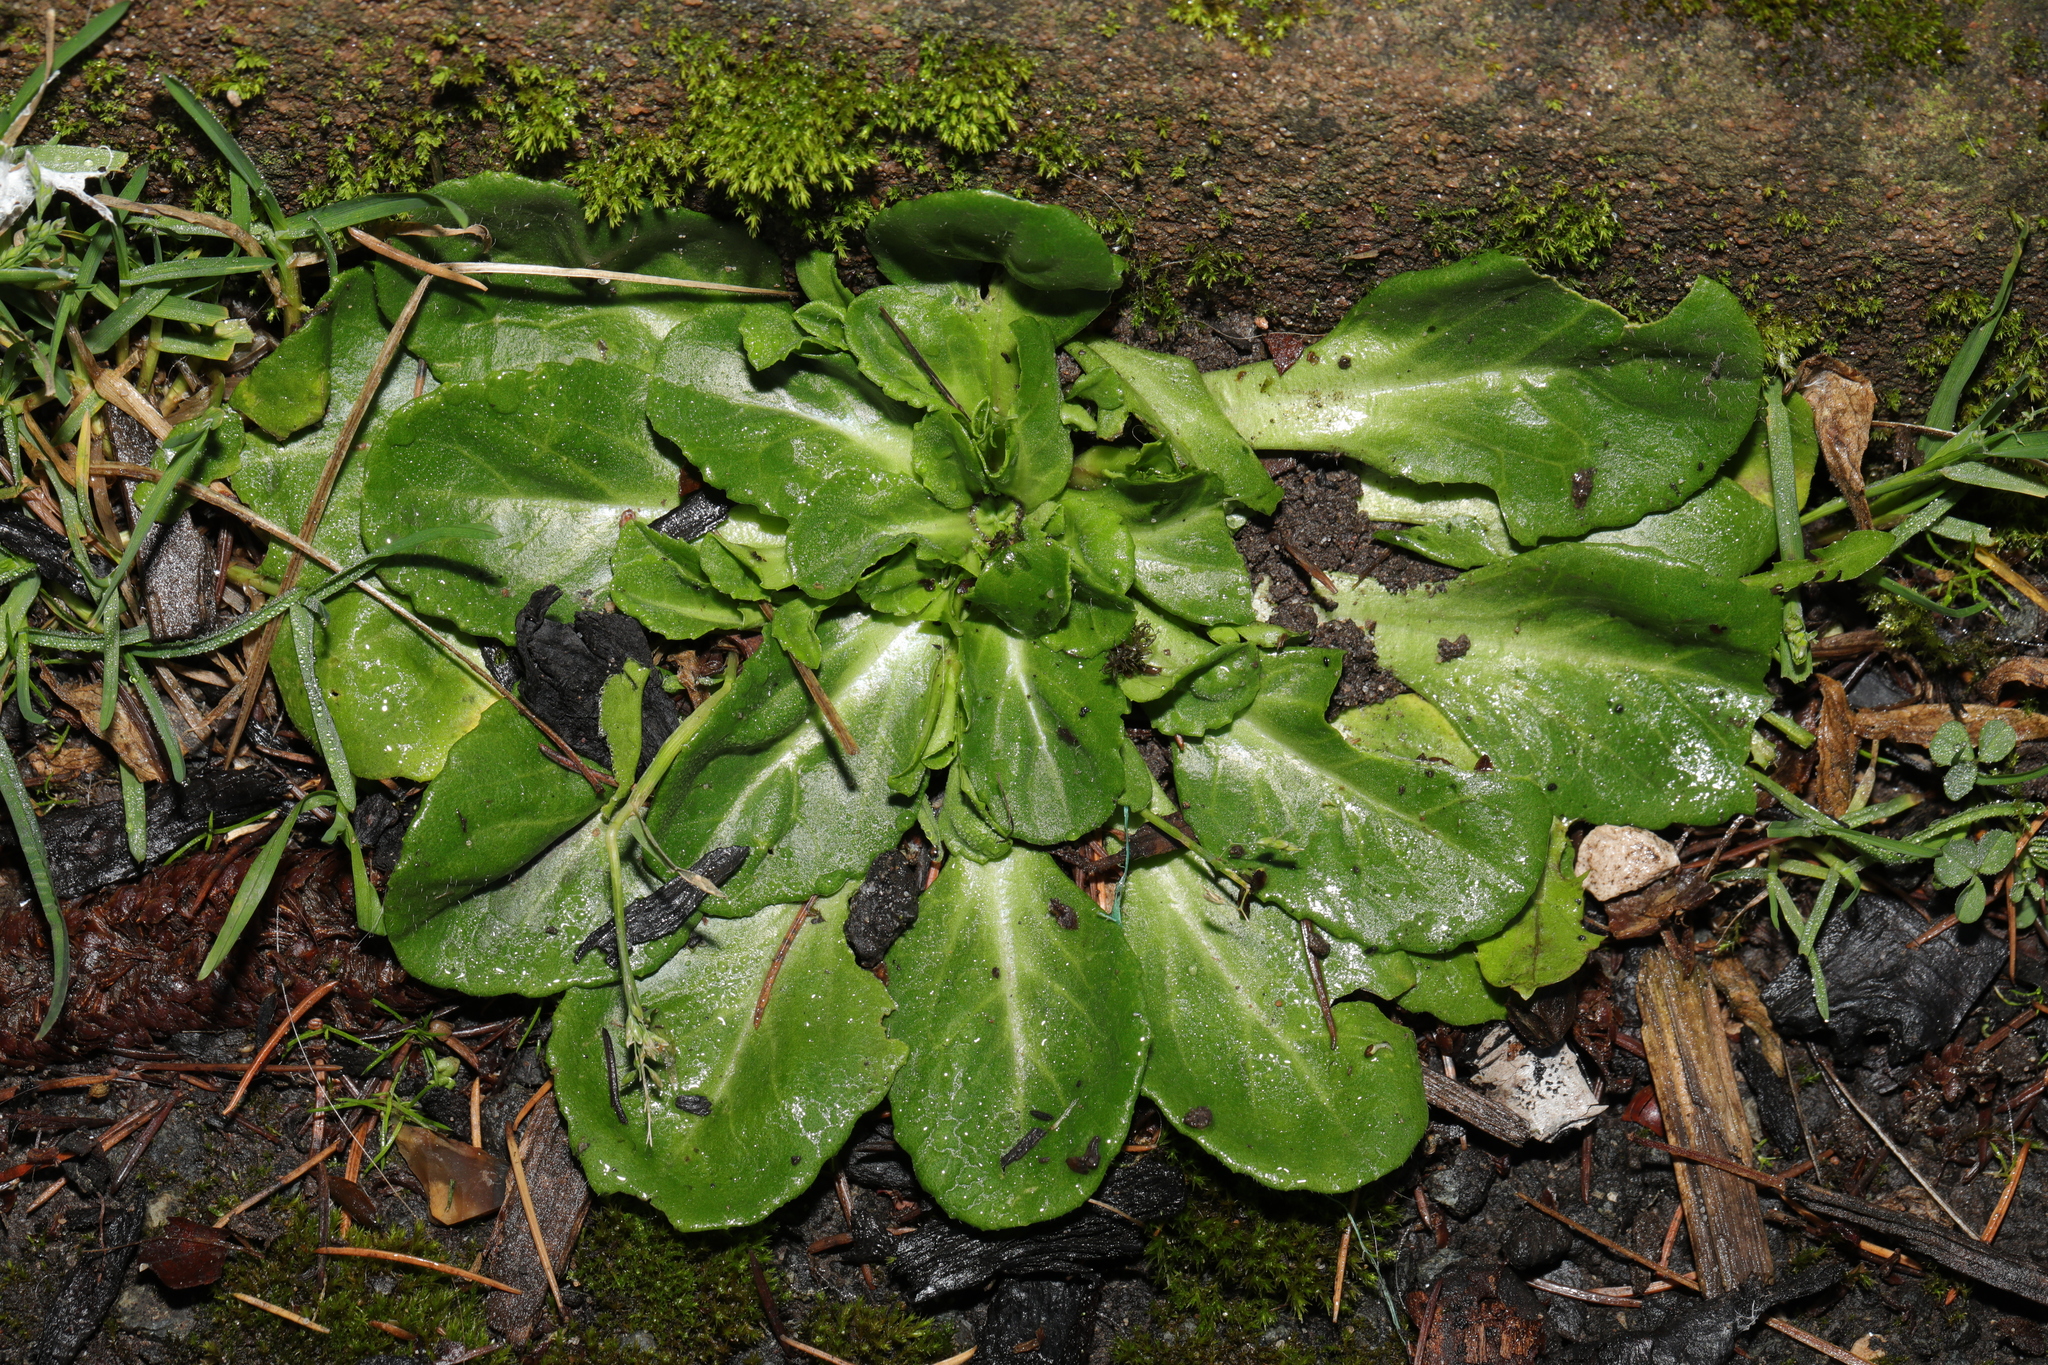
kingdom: Plantae
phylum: Tracheophyta
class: Magnoliopsida
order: Asterales
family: Asteraceae
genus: Bellis
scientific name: Bellis perennis
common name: Lawndaisy
